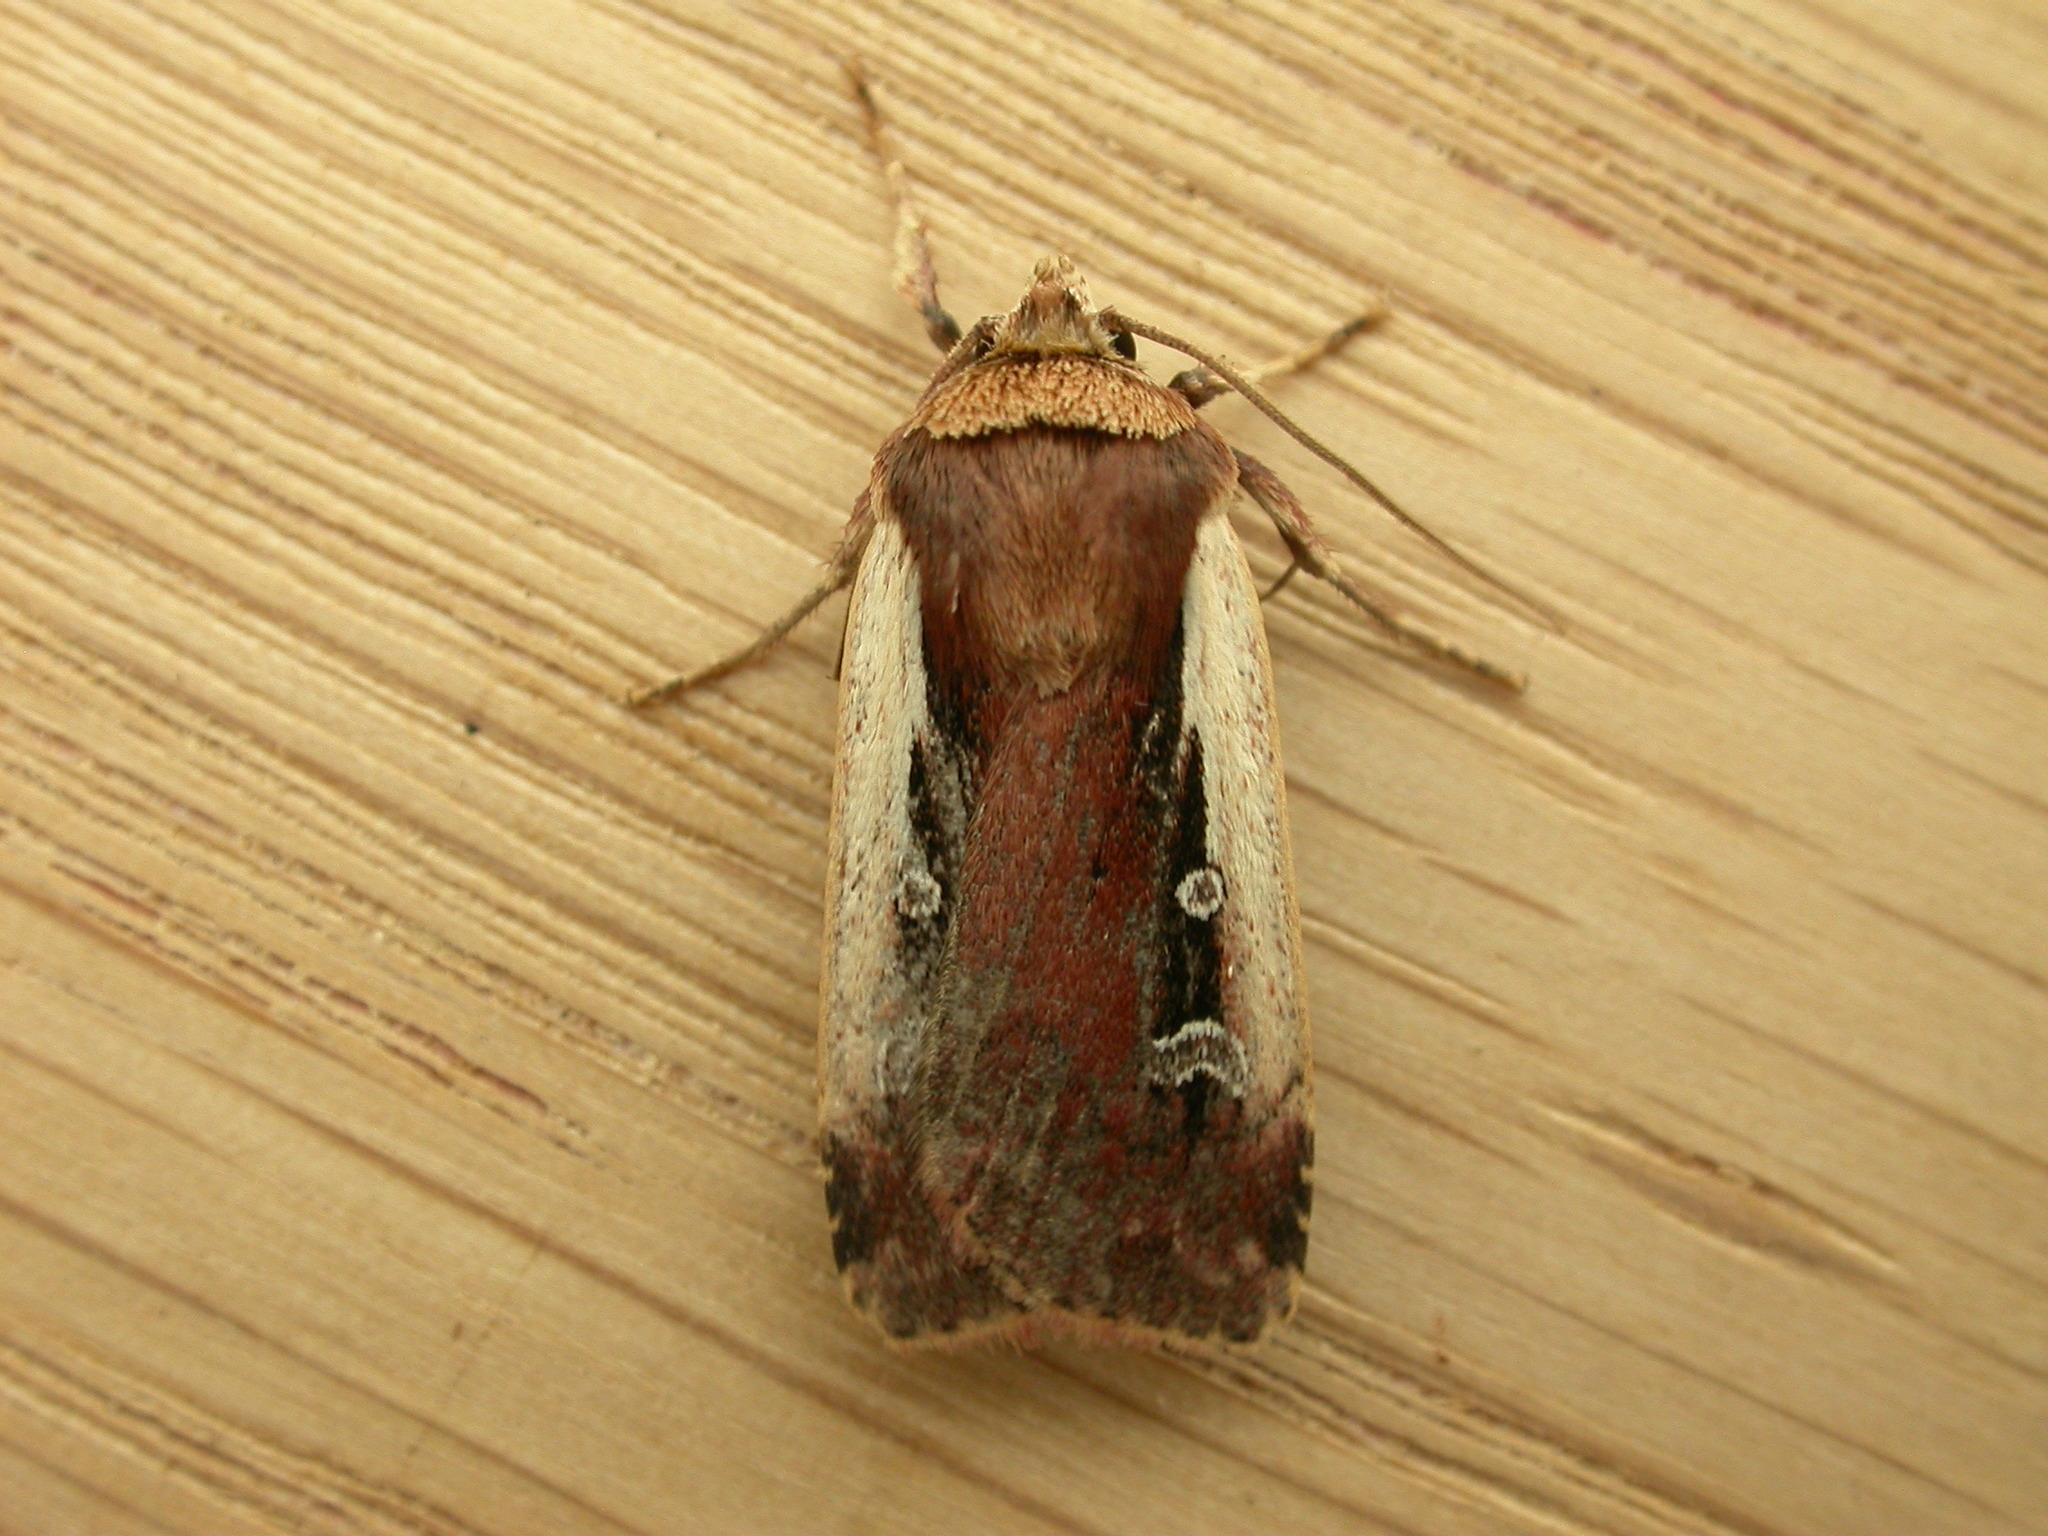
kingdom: Animalia
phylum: Arthropoda
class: Insecta
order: Lepidoptera
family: Noctuidae
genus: Ochropleura
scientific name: Ochropleura plecta
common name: Flame shoulder
